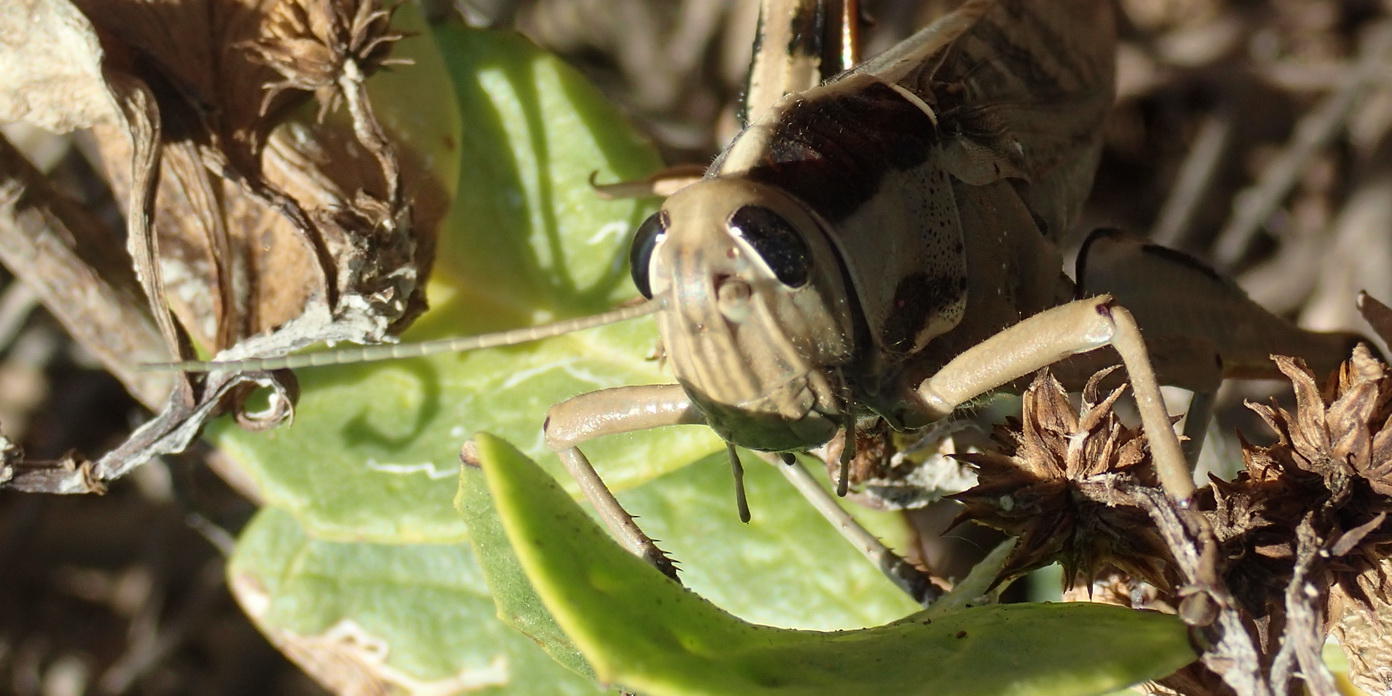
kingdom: Animalia
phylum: Arthropoda
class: Insecta
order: Orthoptera
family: Acrididae
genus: Acanthacris
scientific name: Acanthacris ruficornis
